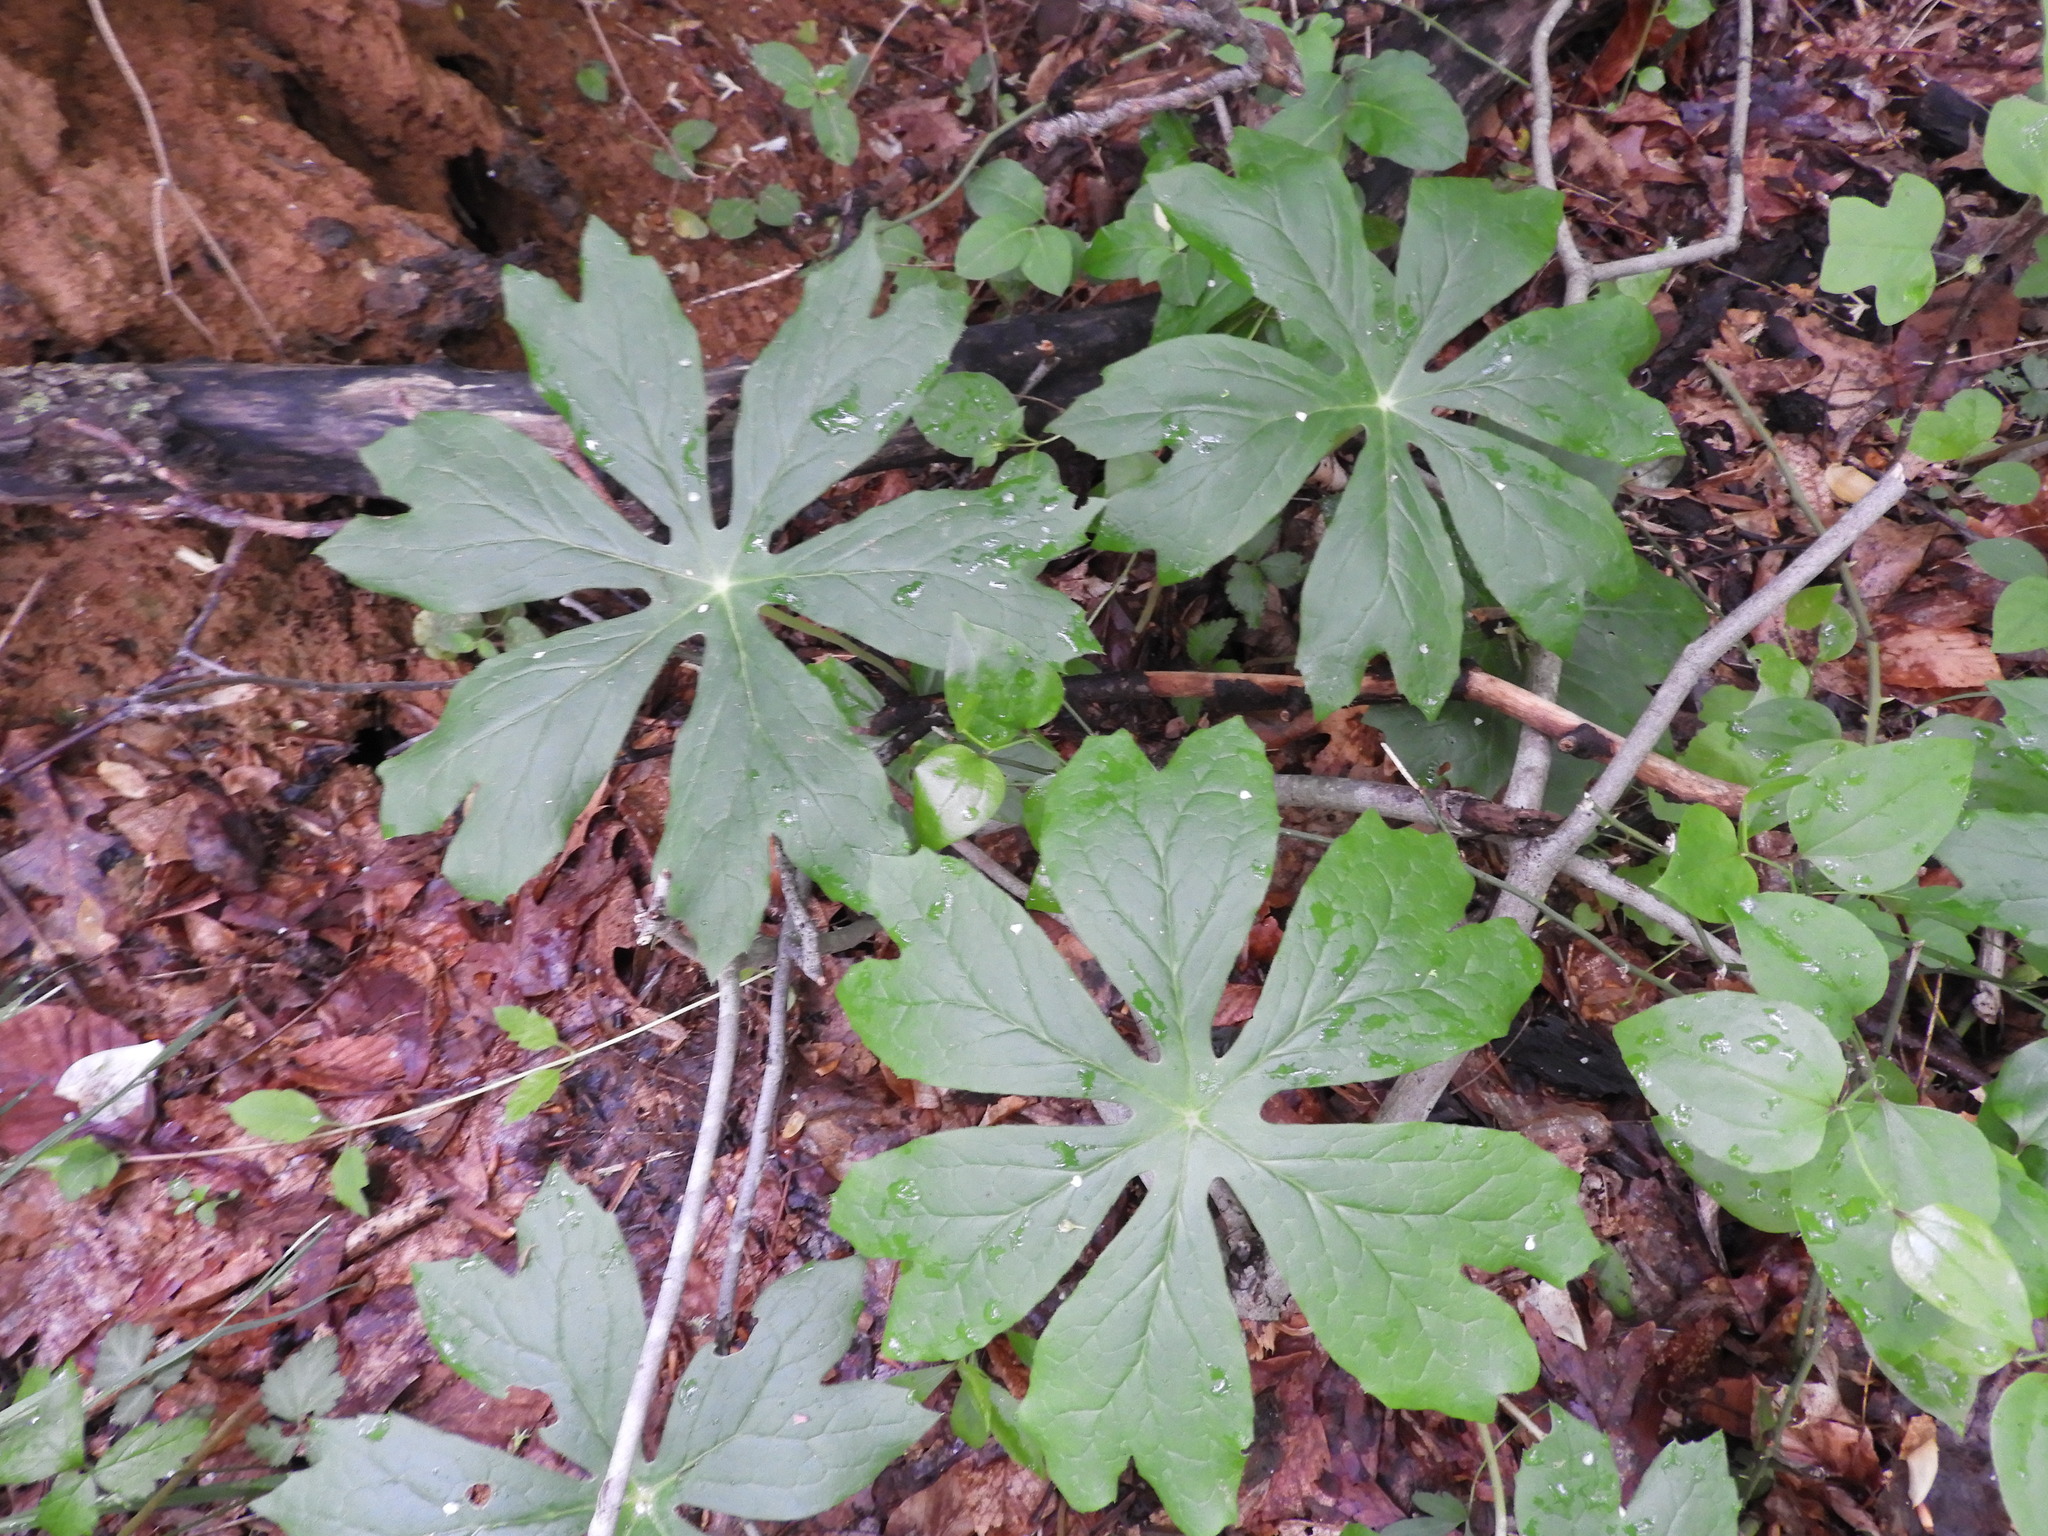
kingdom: Plantae
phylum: Tracheophyta
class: Magnoliopsida
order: Ranunculales
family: Berberidaceae
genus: Podophyllum
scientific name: Podophyllum peltatum
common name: Wild mandrake
